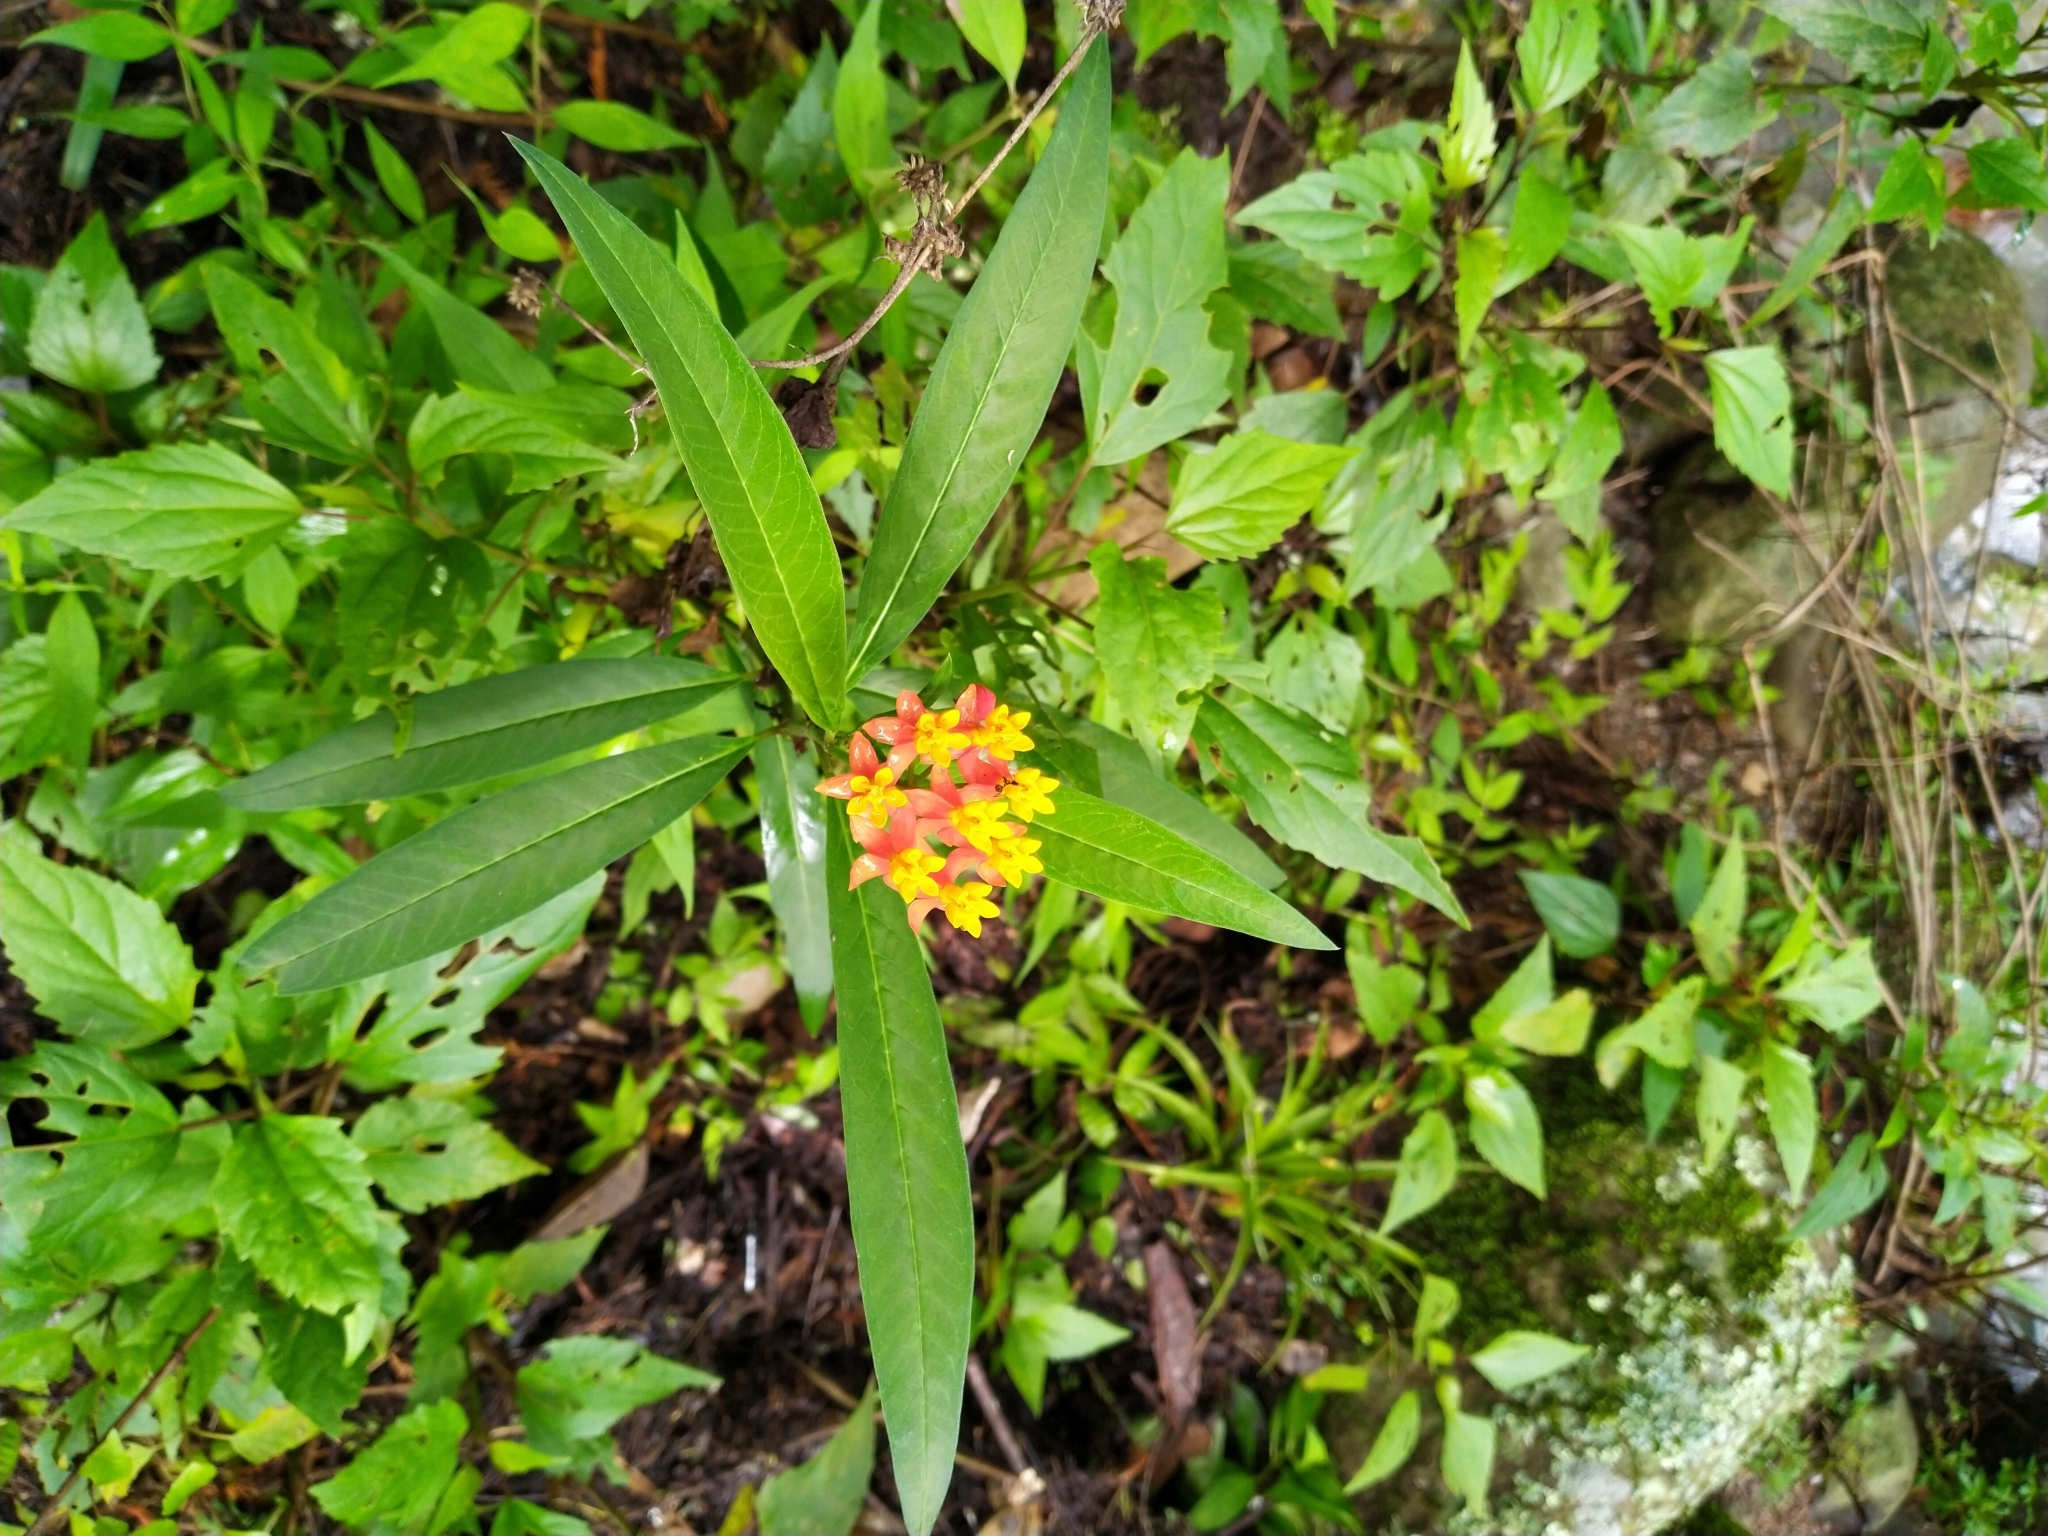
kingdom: Plantae
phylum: Tracheophyta
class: Magnoliopsida
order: Gentianales
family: Apocynaceae
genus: Asclepias
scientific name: Asclepias curassavica
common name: Bloodflower
